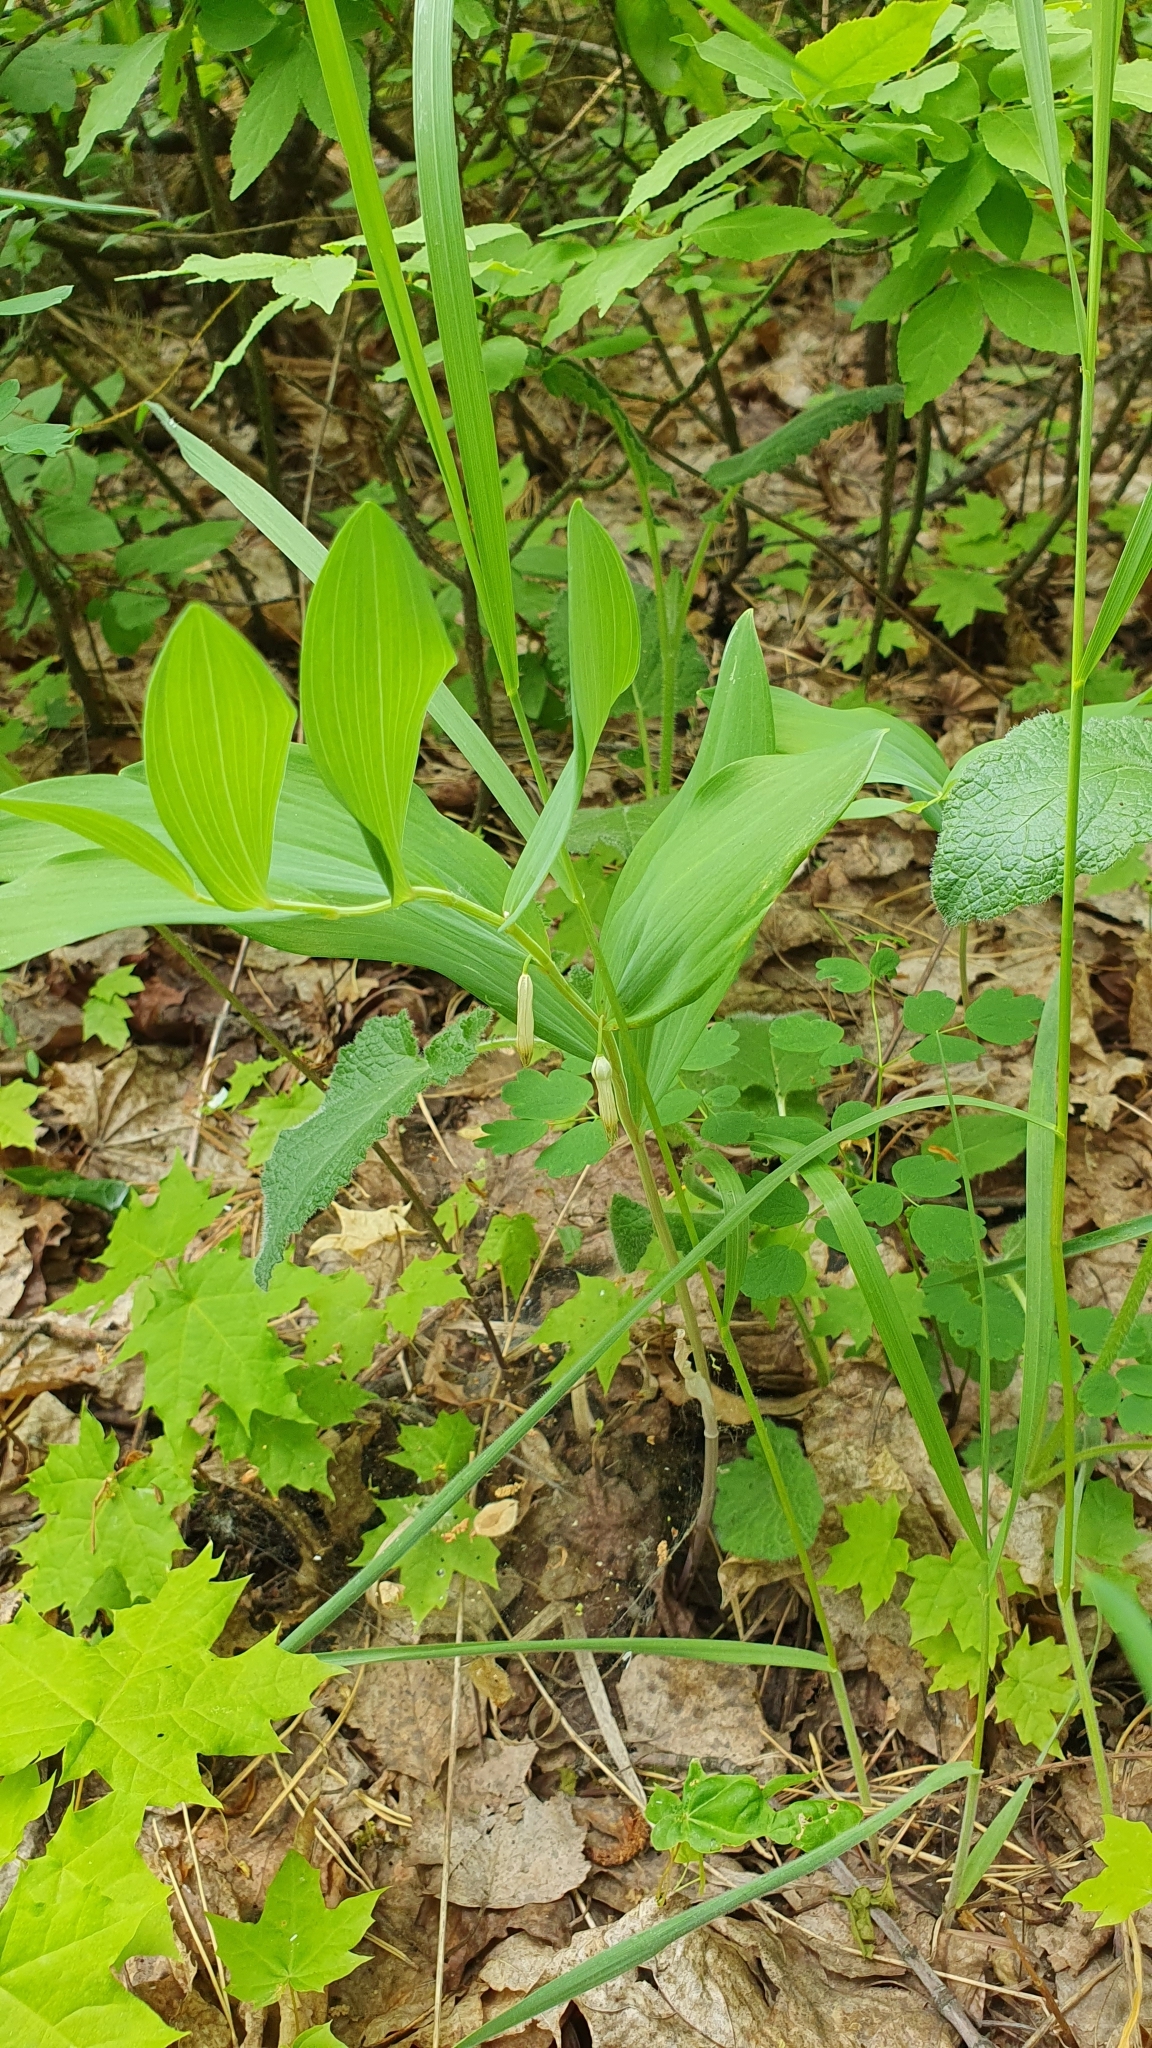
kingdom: Plantae
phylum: Tracheophyta
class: Liliopsida
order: Asparagales
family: Asparagaceae
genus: Polygonatum
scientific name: Polygonatum odoratum
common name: Angular solomon's-seal
